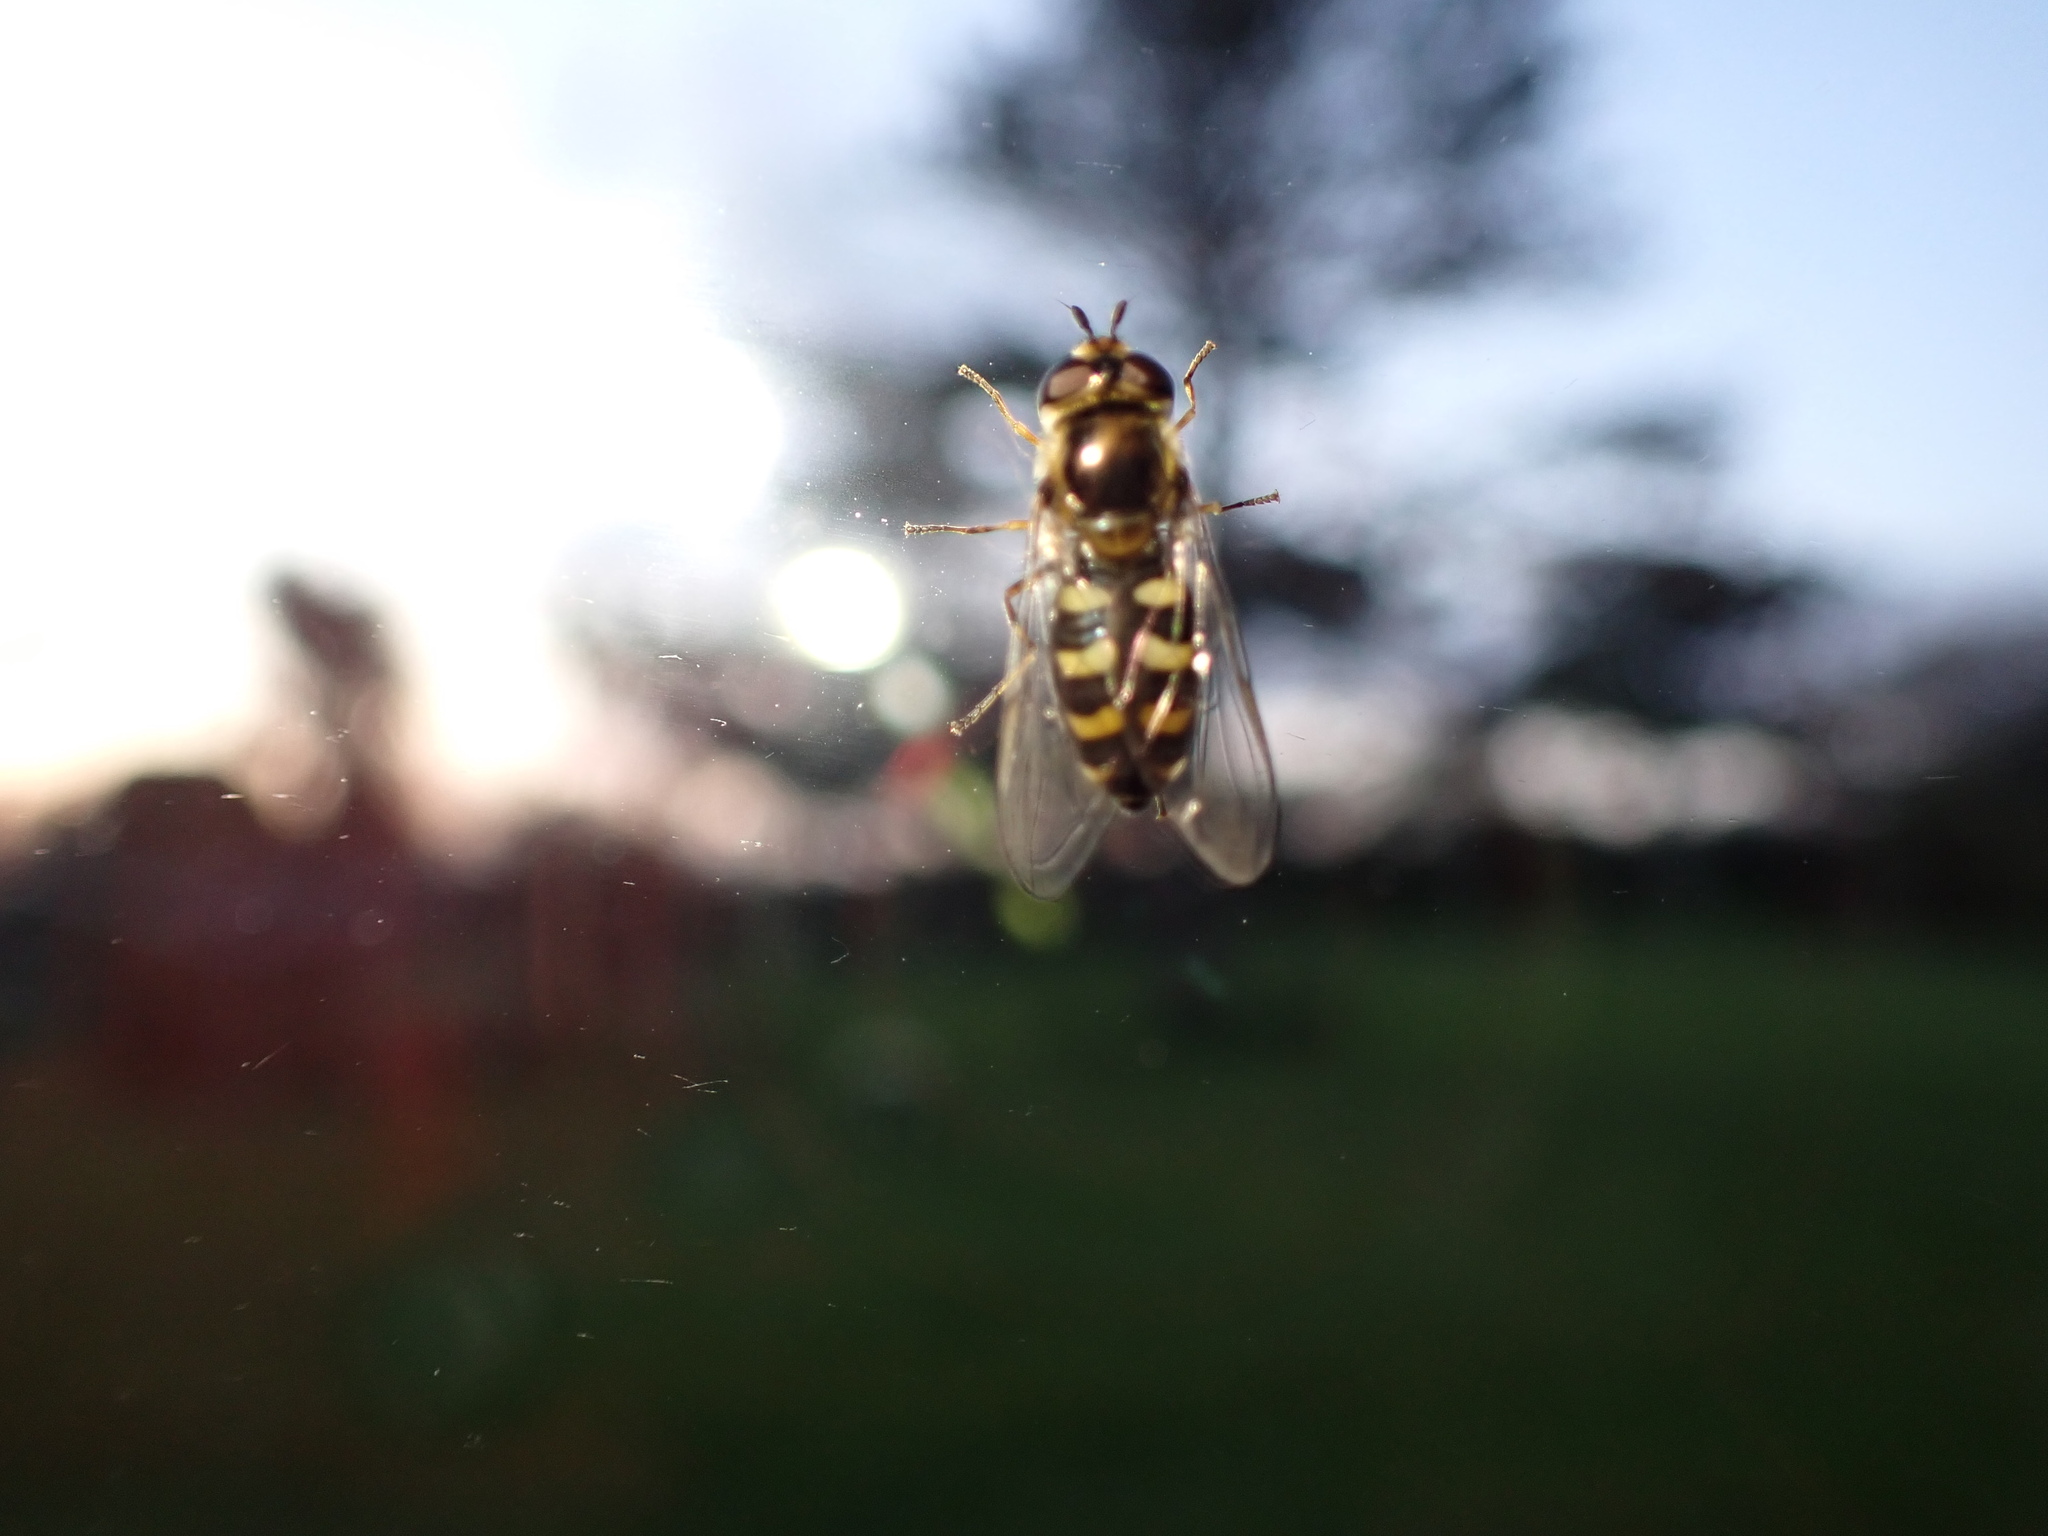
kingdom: Animalia
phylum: Arthropoda
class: Insecta
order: Diptera
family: Syrphidae
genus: Eupeodes
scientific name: Eupeodes
